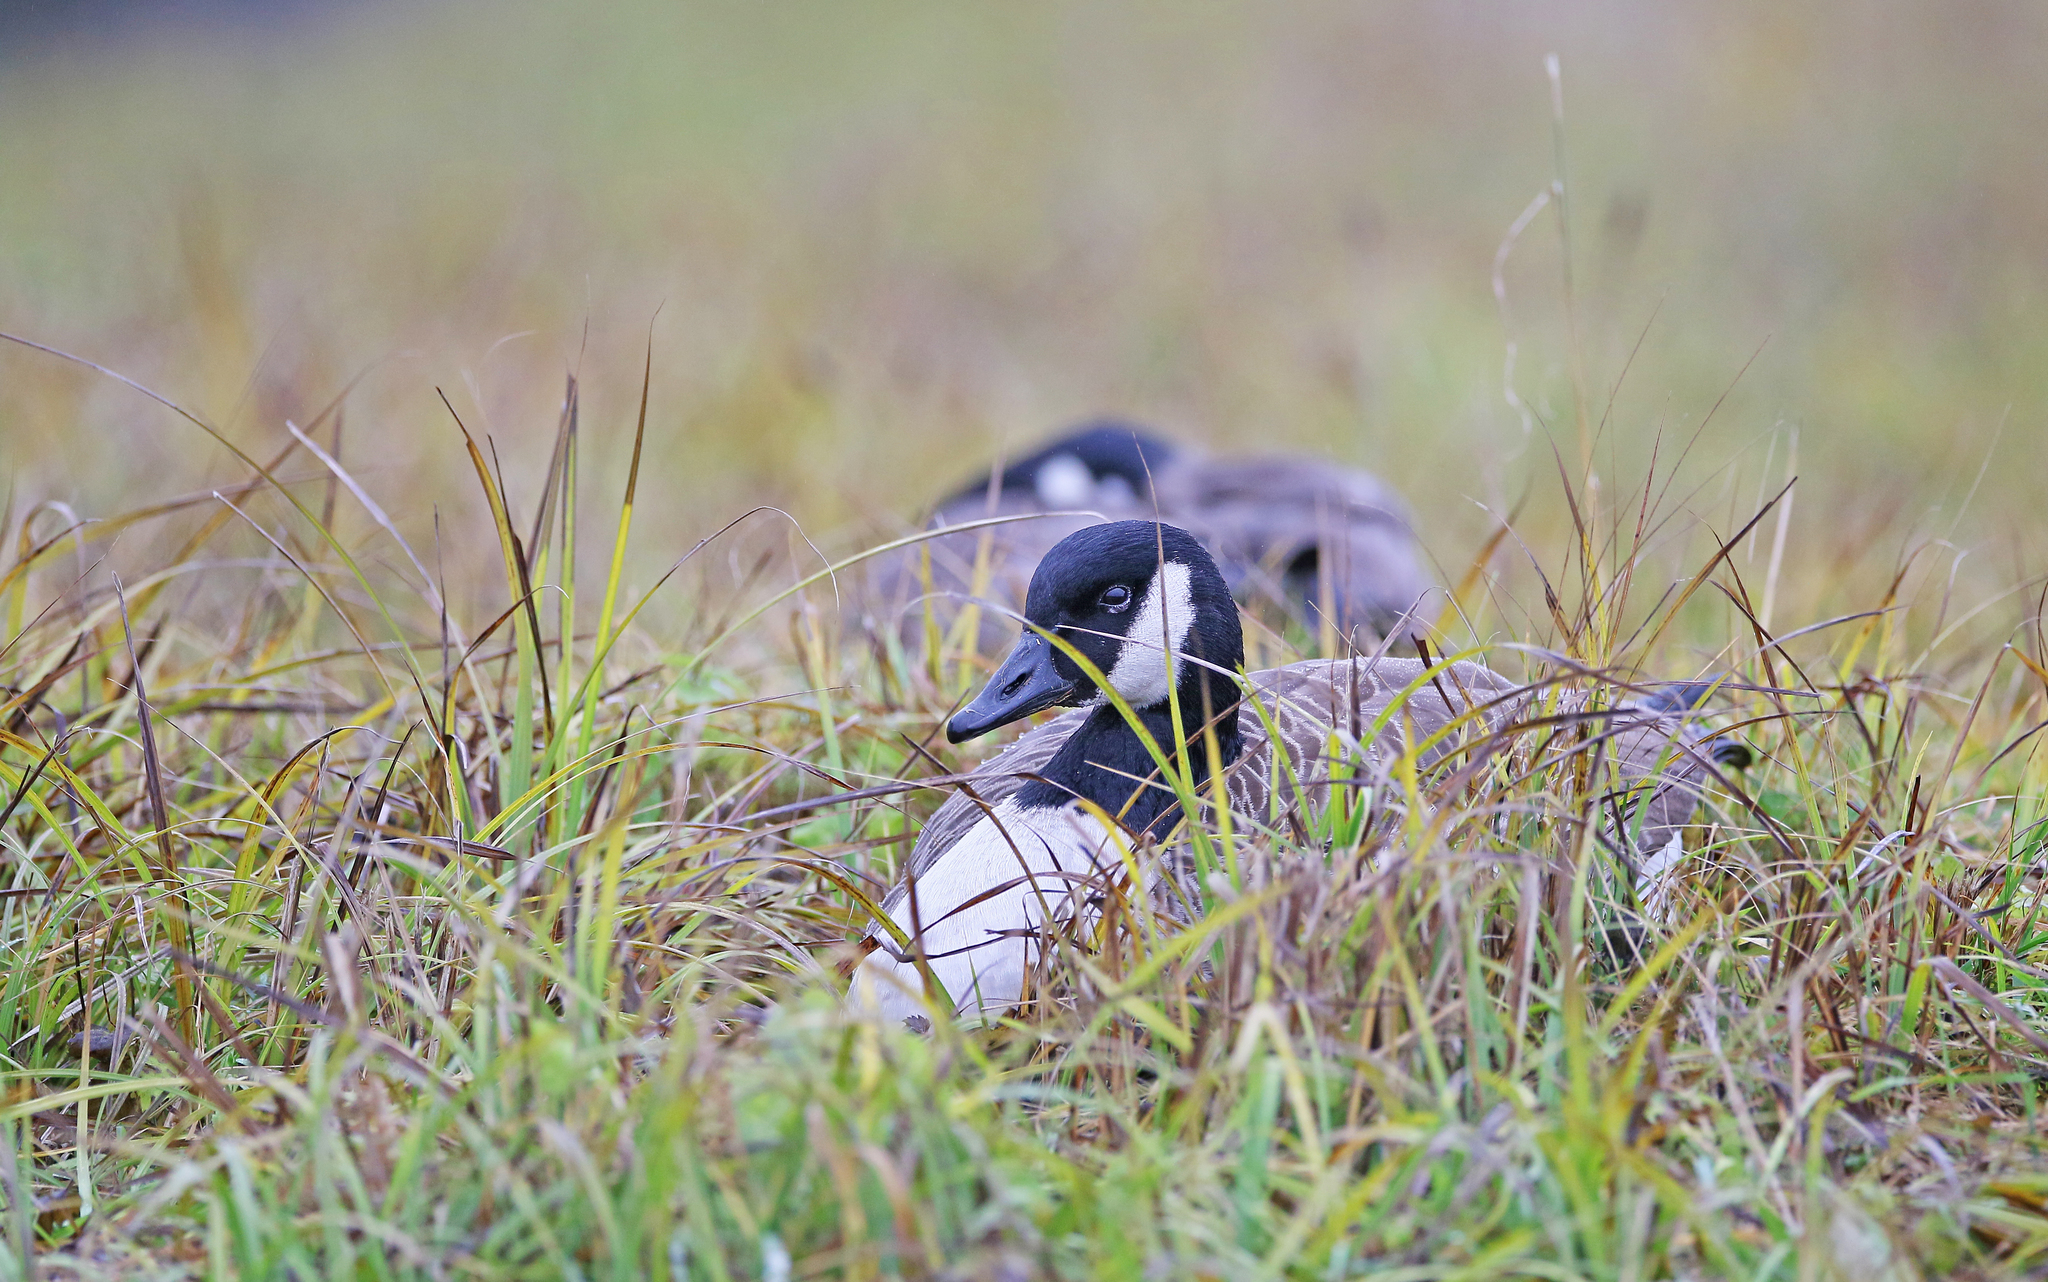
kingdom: Animalia
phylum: Chordata
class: Aves
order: Anseriformes
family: Anatidae
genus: Branta
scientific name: Branta canadensis
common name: Canada goose
